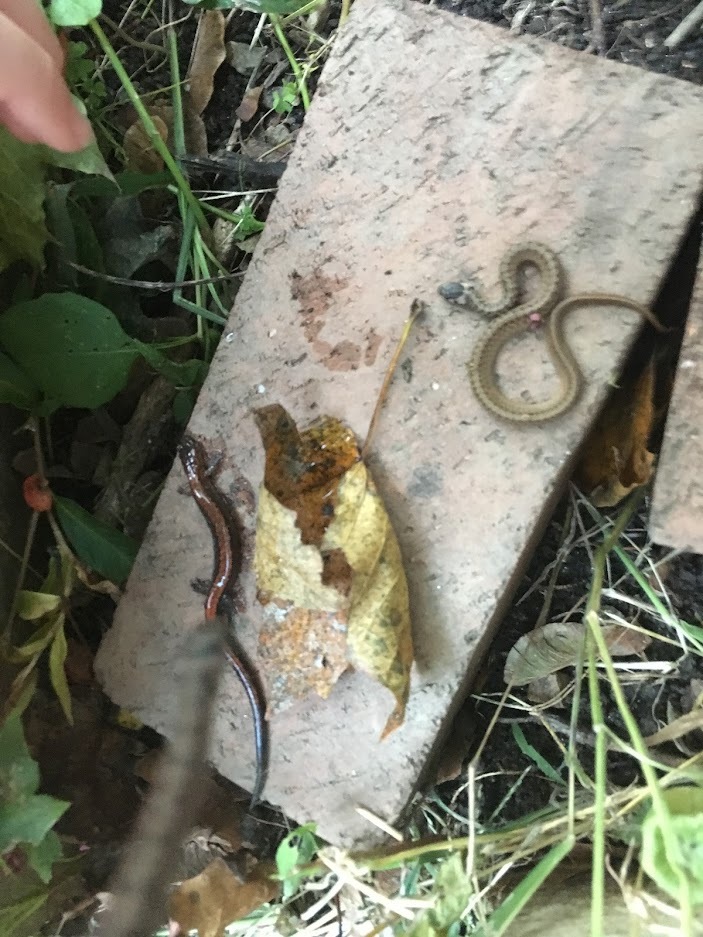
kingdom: Animalia
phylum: Chordata
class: Amphibia
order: Caudata
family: Plethodontidae
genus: Plethodon
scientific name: Plethodon cinereus
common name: Redback salamander
